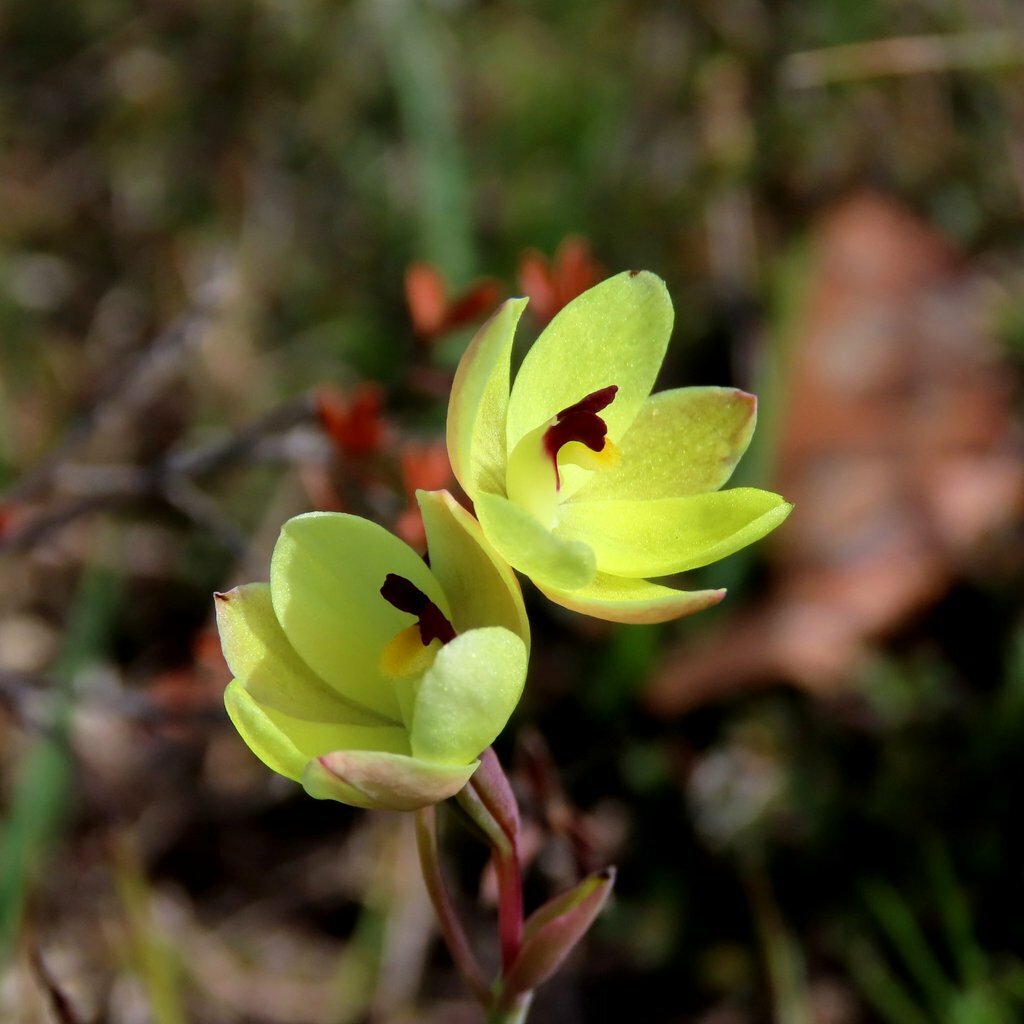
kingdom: Plantae
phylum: Tracheophyta
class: Liliopsida
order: Asparagales
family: Orchidaceae
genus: Thelymitra
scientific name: Thelymitra antennifera
